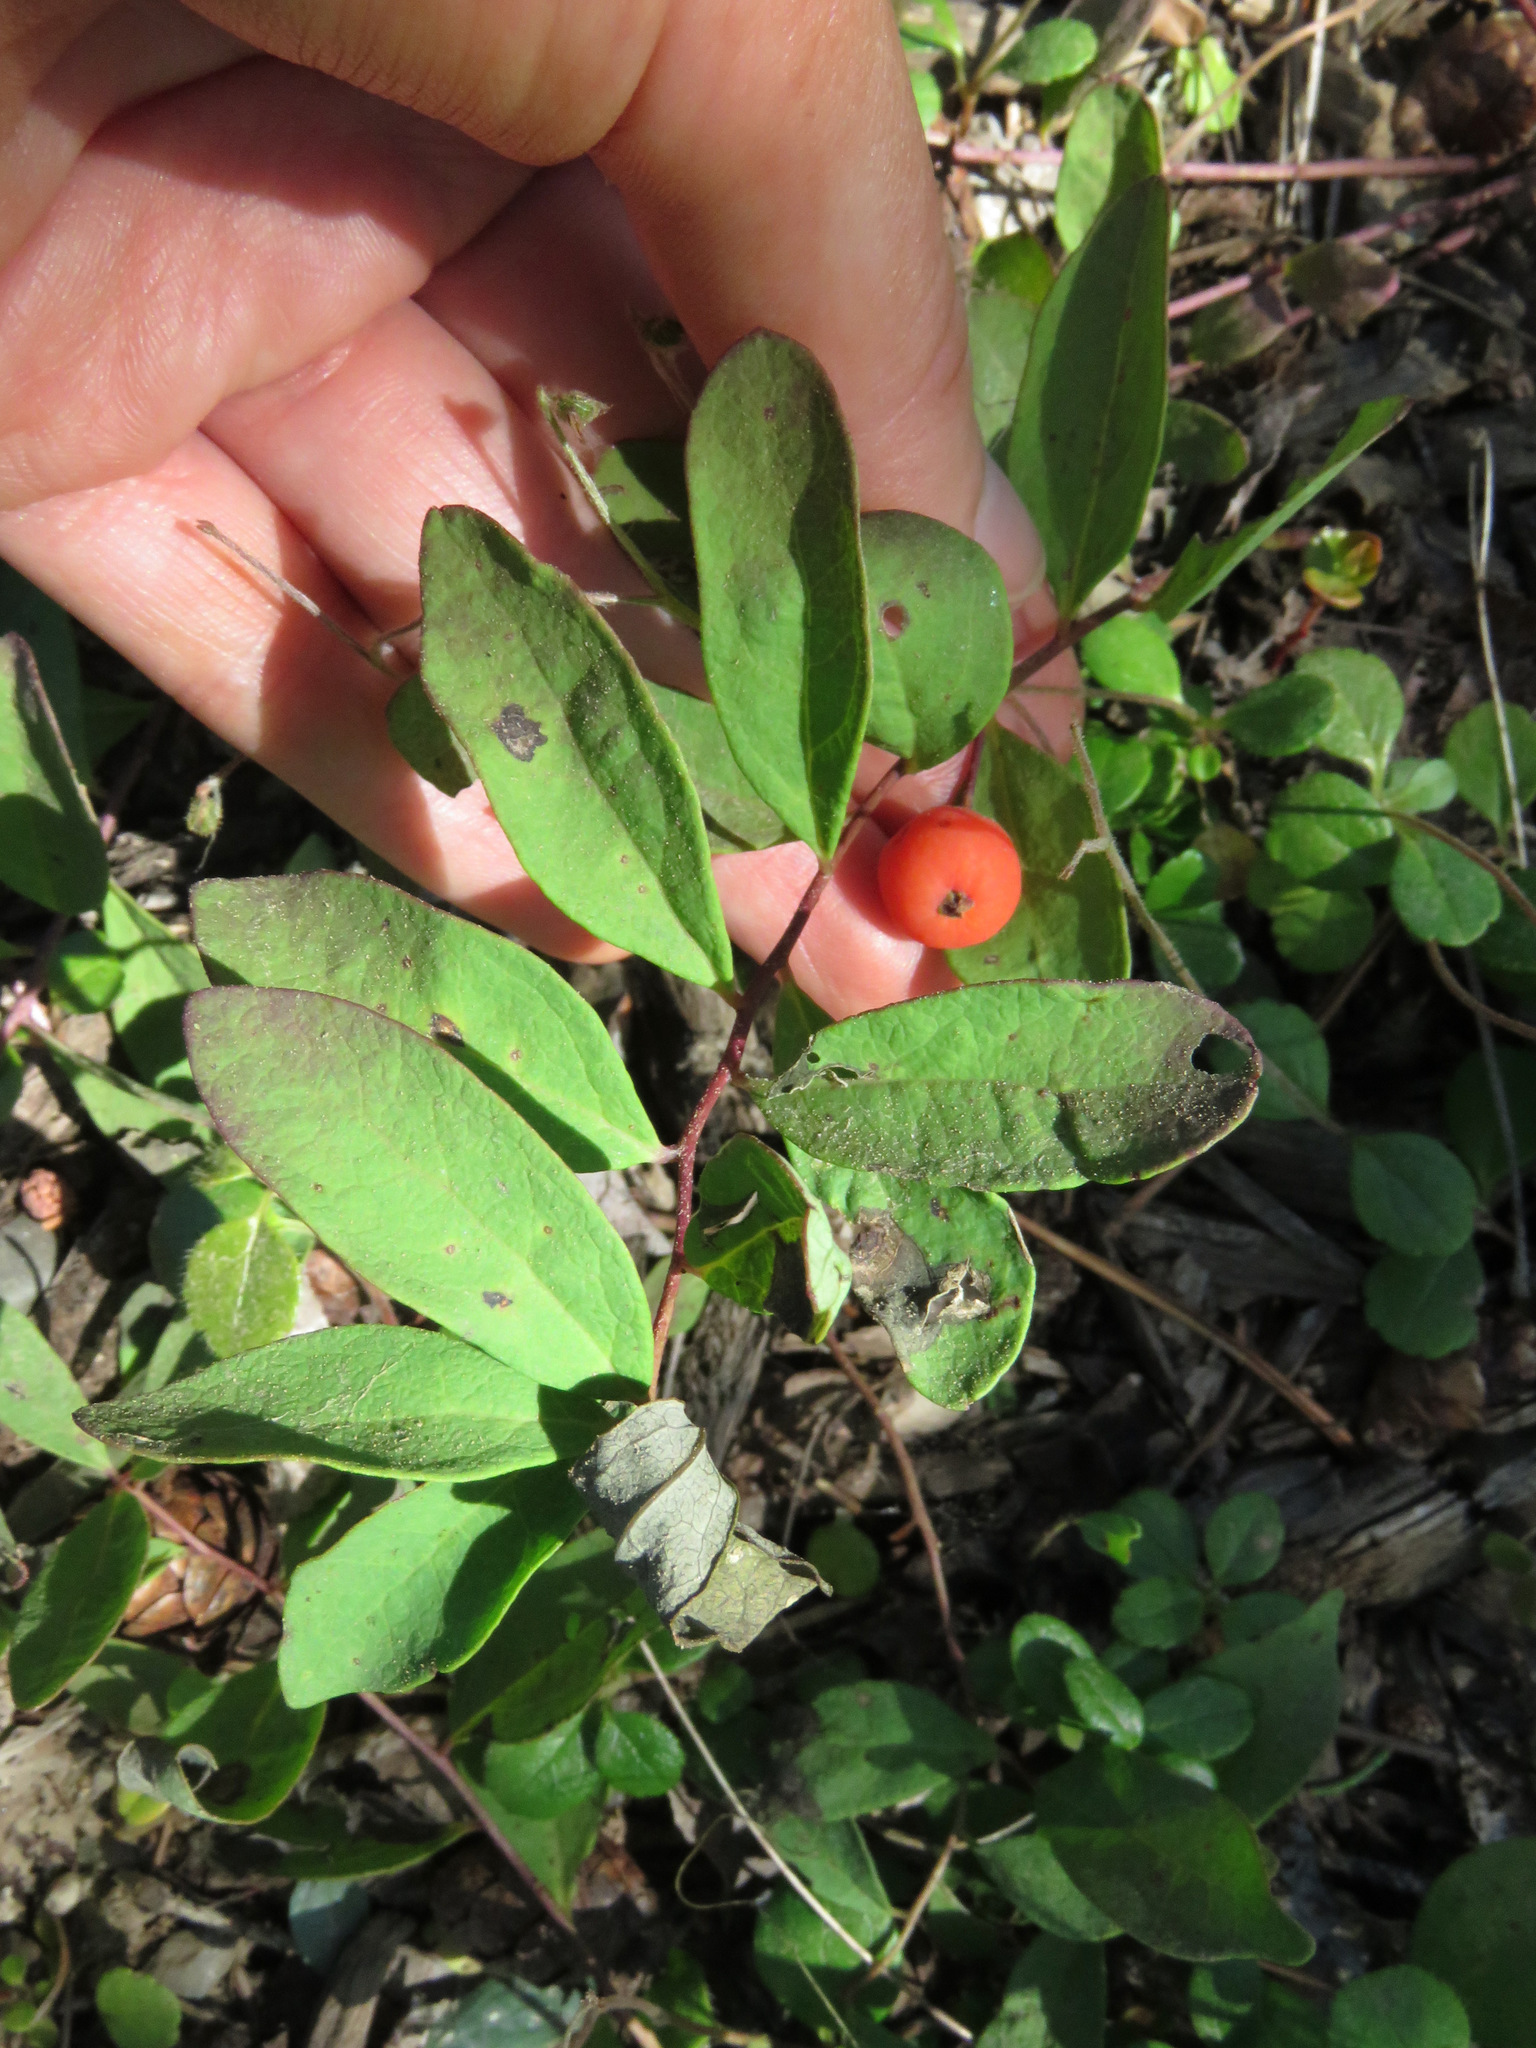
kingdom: Plantae
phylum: Tracheophyta
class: Magnoliopsida
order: Santalales
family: Comandraceae
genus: Geocaulon
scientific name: Geocaulon lividum
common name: Earthberry
